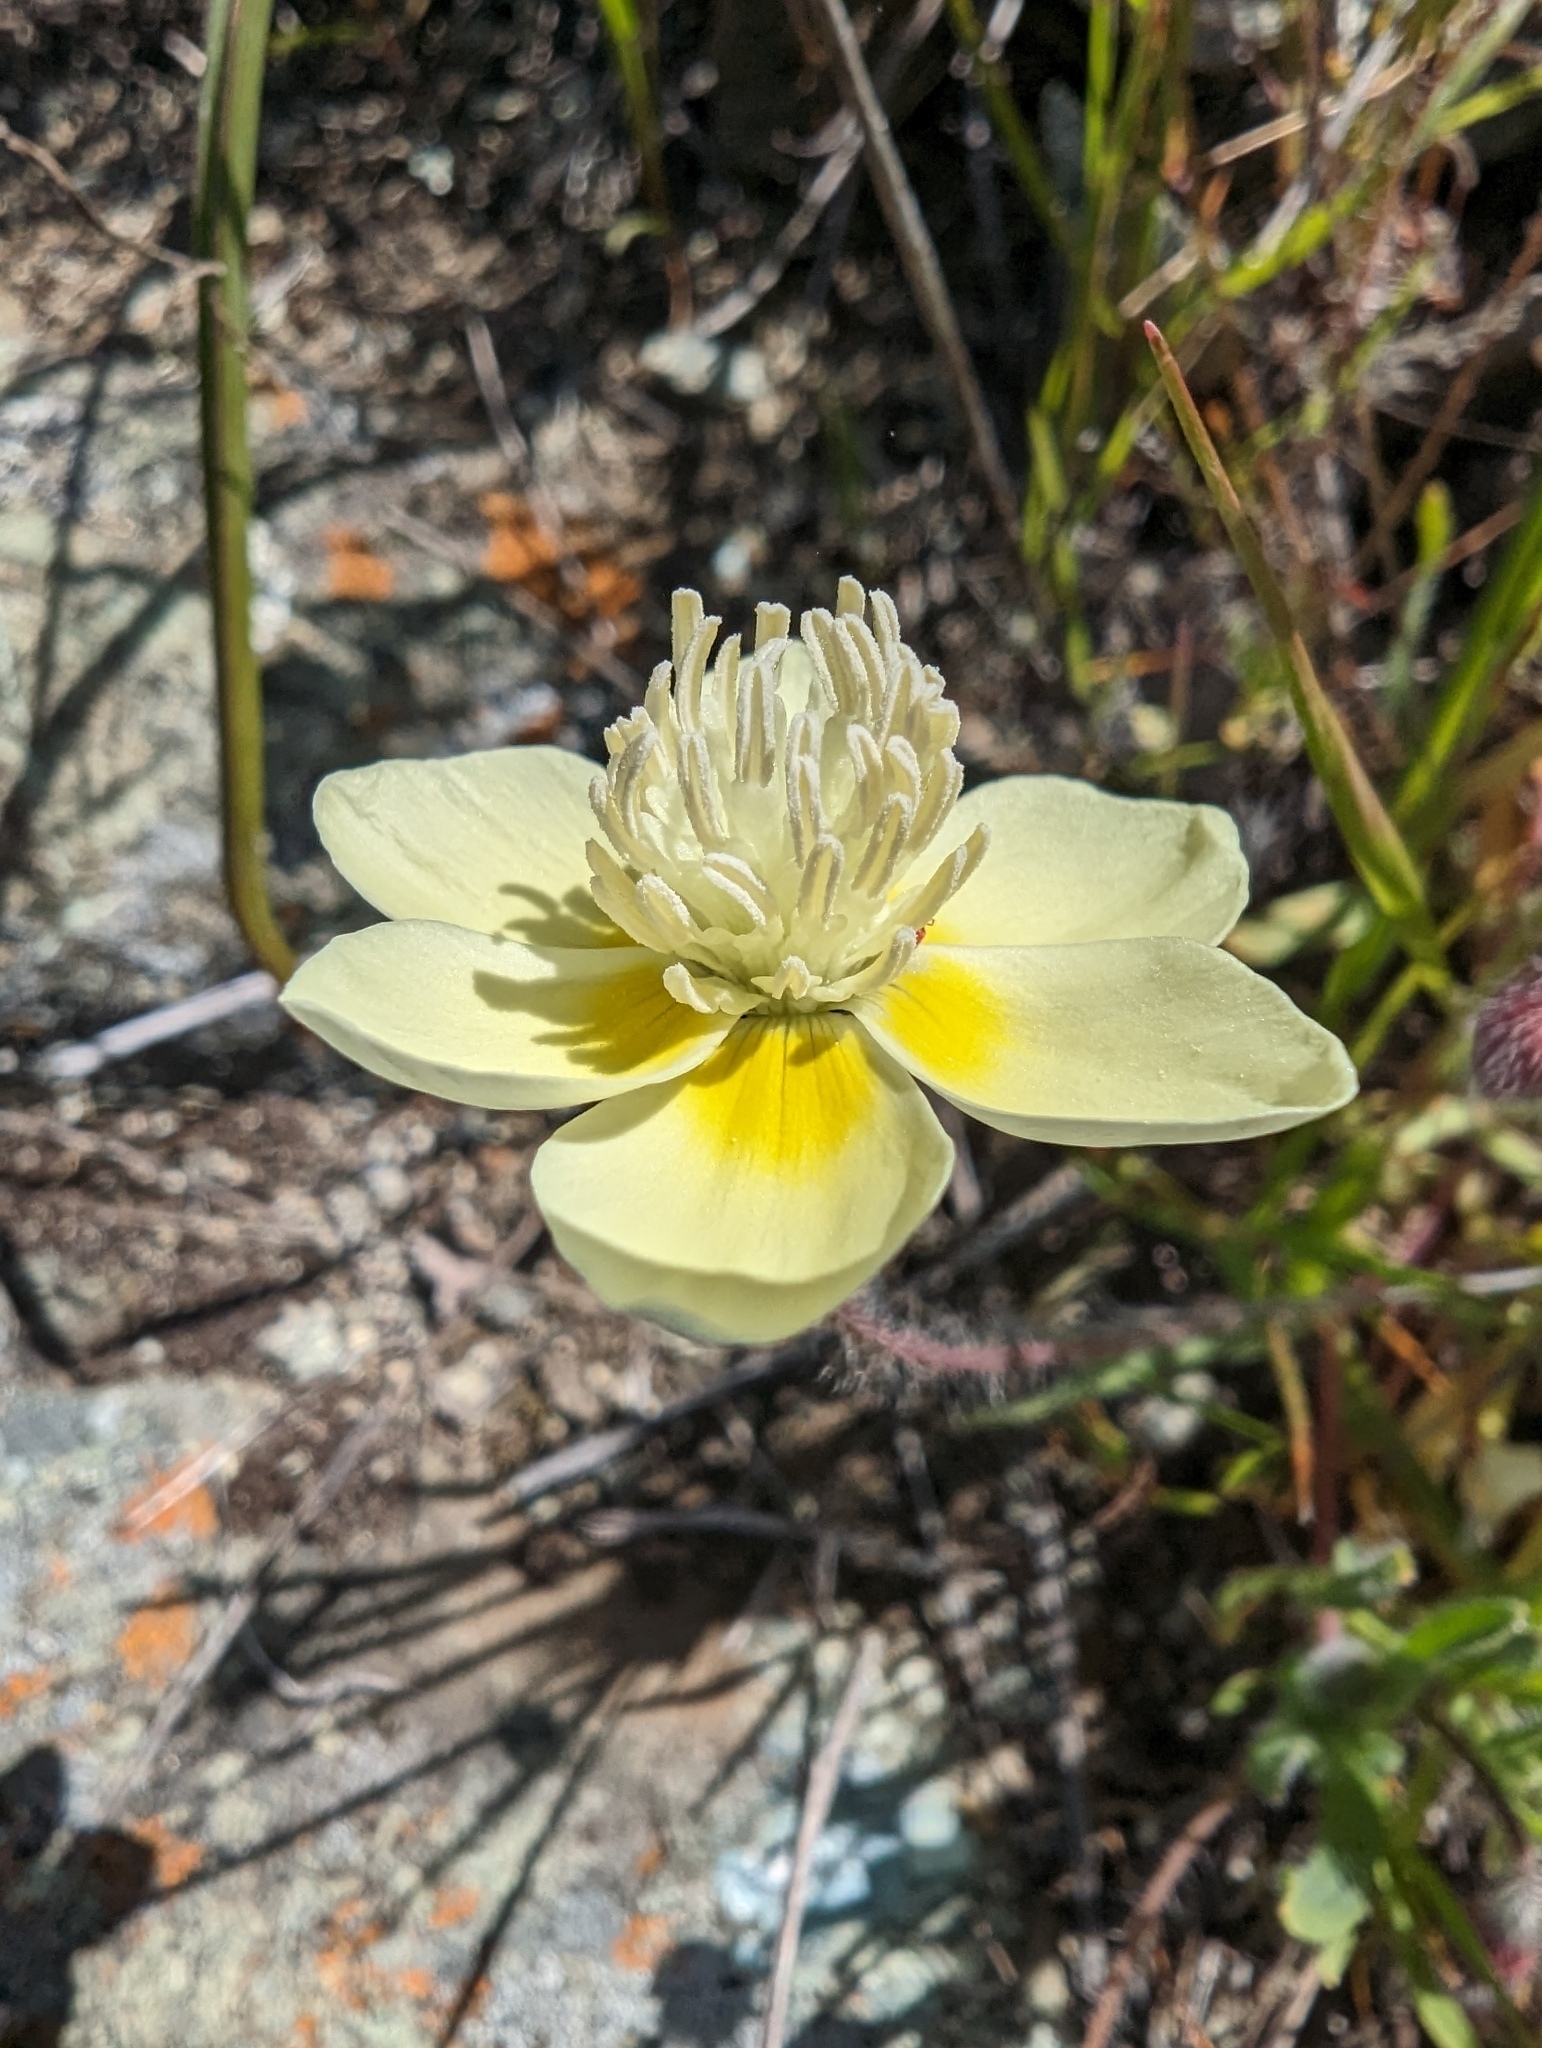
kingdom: Plantae
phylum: Tracheophyta
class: Magnoliopsida
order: Ranunculales
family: Papaveraceae
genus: Platystemon
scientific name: Platystemon californicus
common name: Cream-cups
